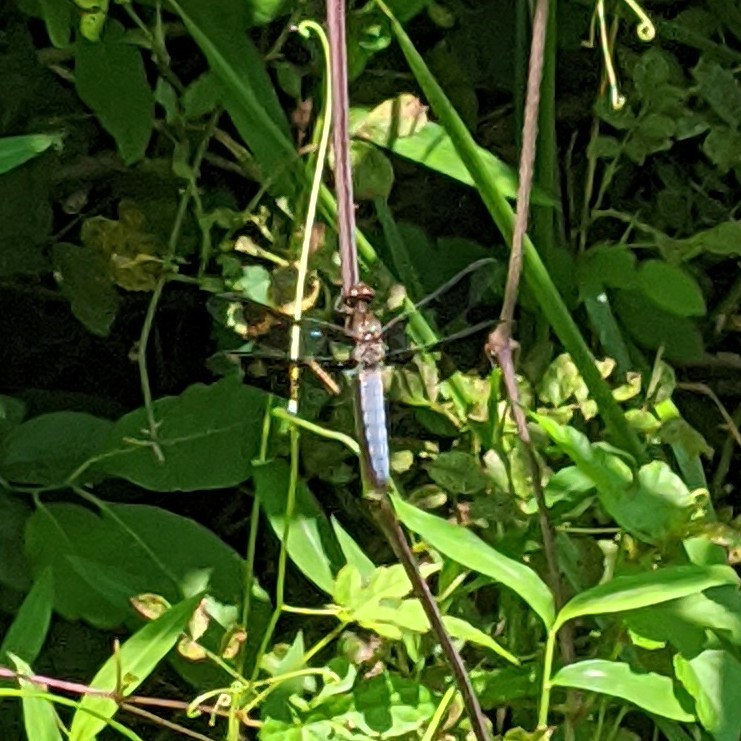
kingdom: Animalia
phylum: Arthropoda
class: Insecta
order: Odonata
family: Libellulidae
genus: Plathemis
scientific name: Plathemis lydia
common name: Common whitetail
